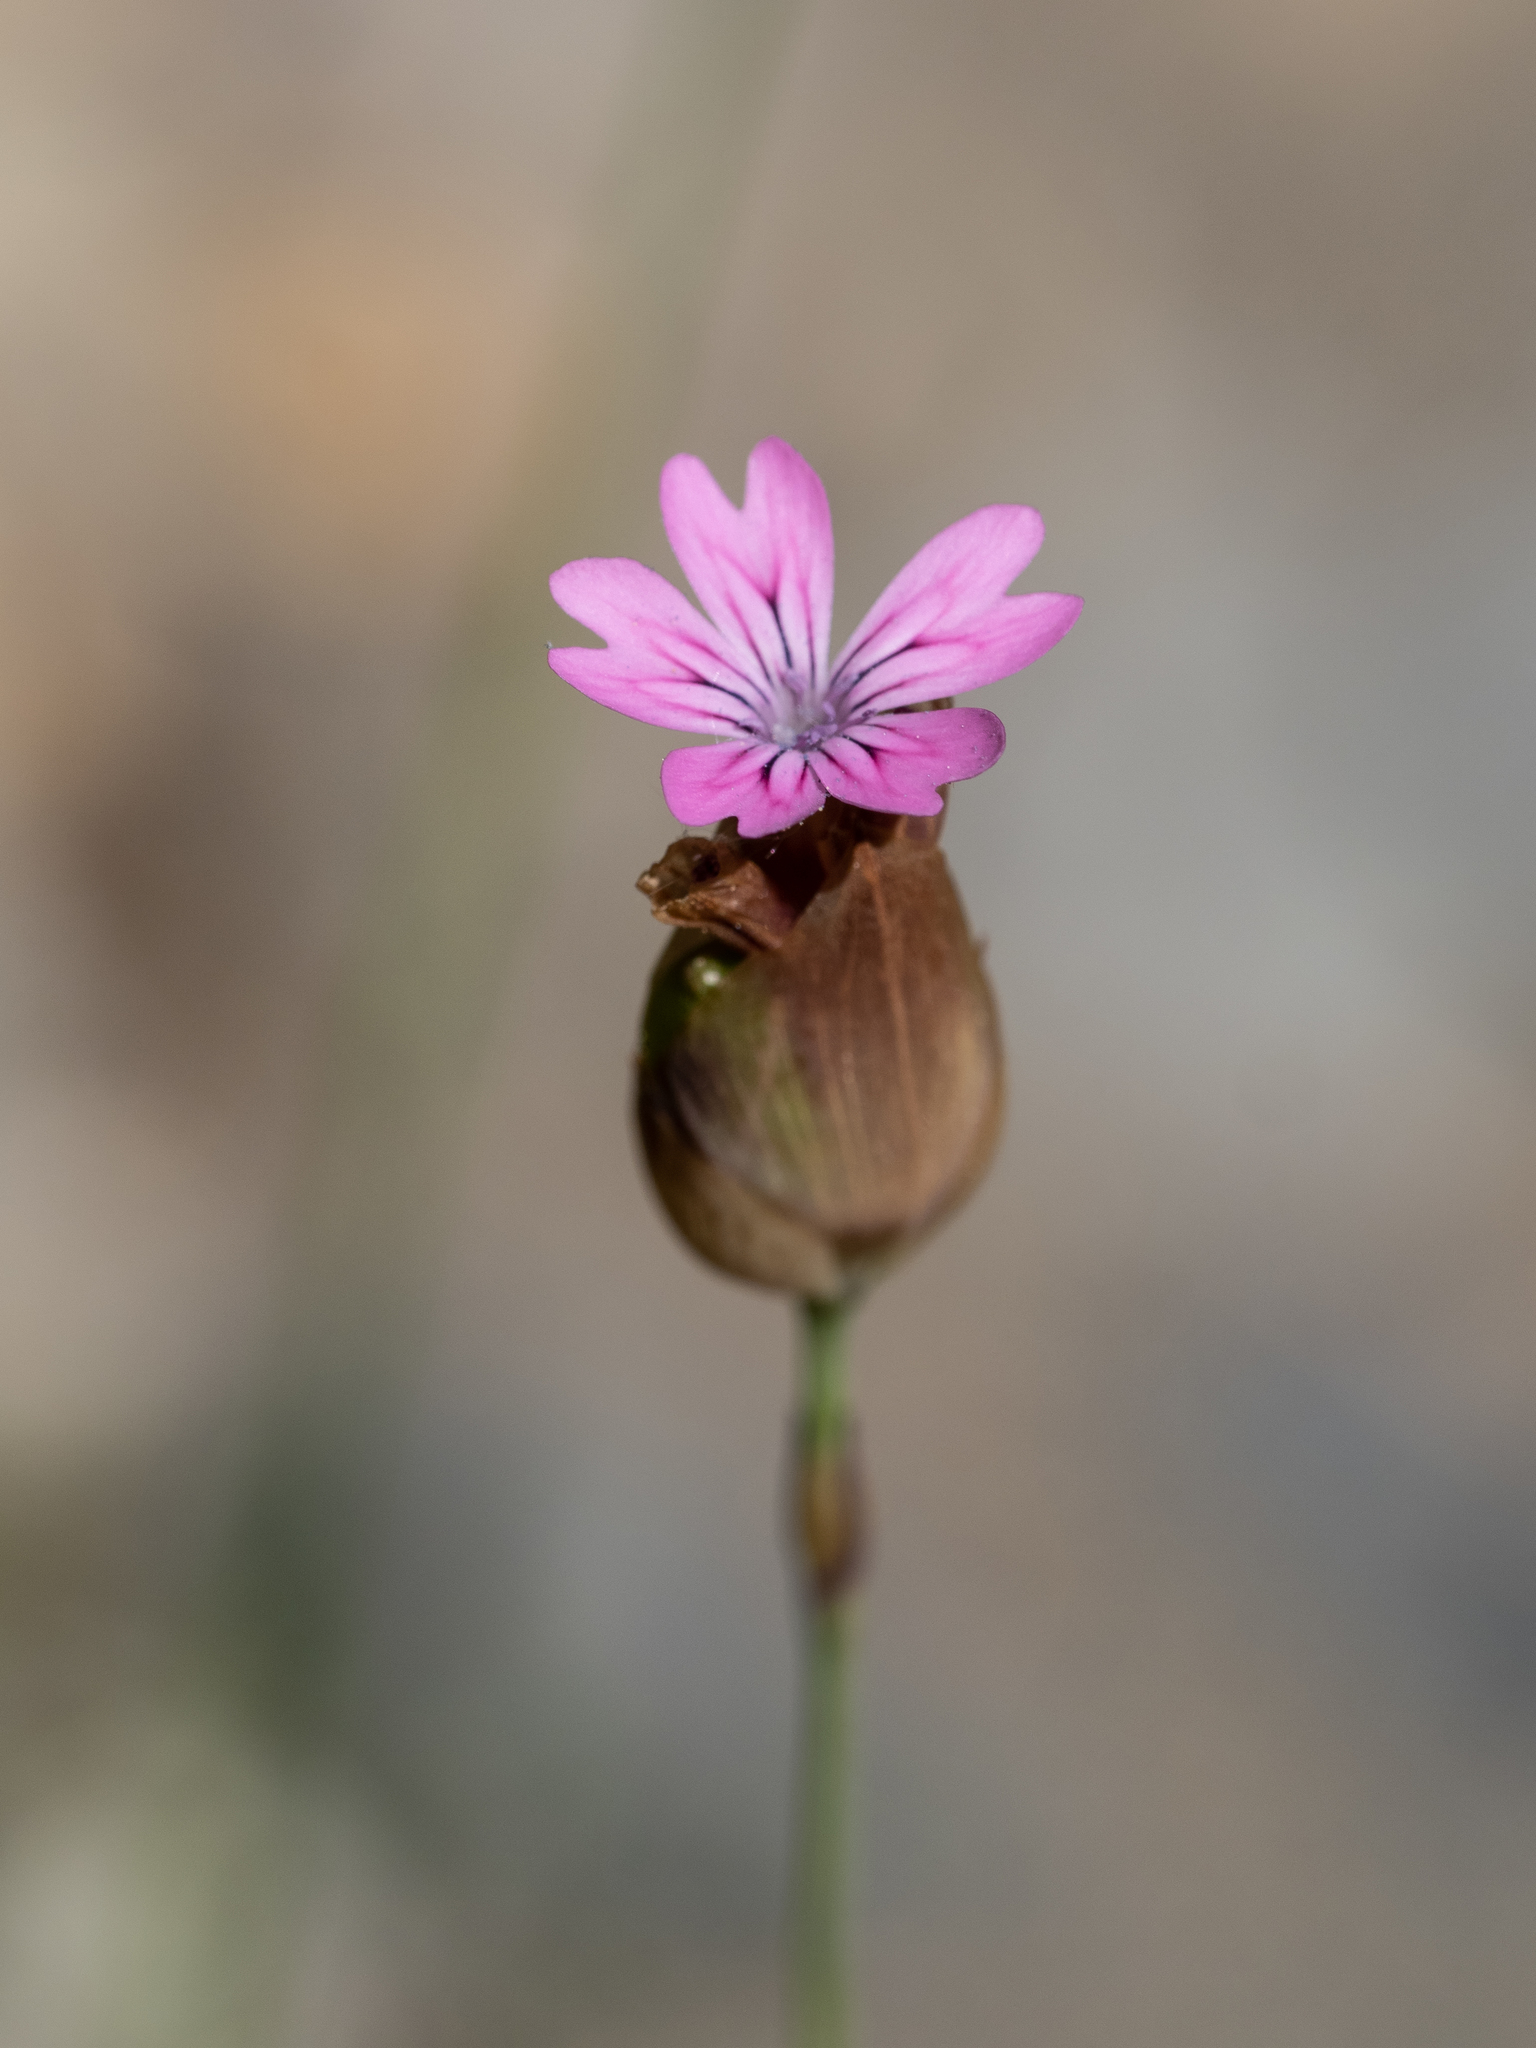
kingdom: Plantae
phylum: Tracheophyta
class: Magnoliopsida
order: Caryophyllales
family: Caryophyllaceae
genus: Petrorhagia
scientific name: Petrorhagia dubia
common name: Hairypink
